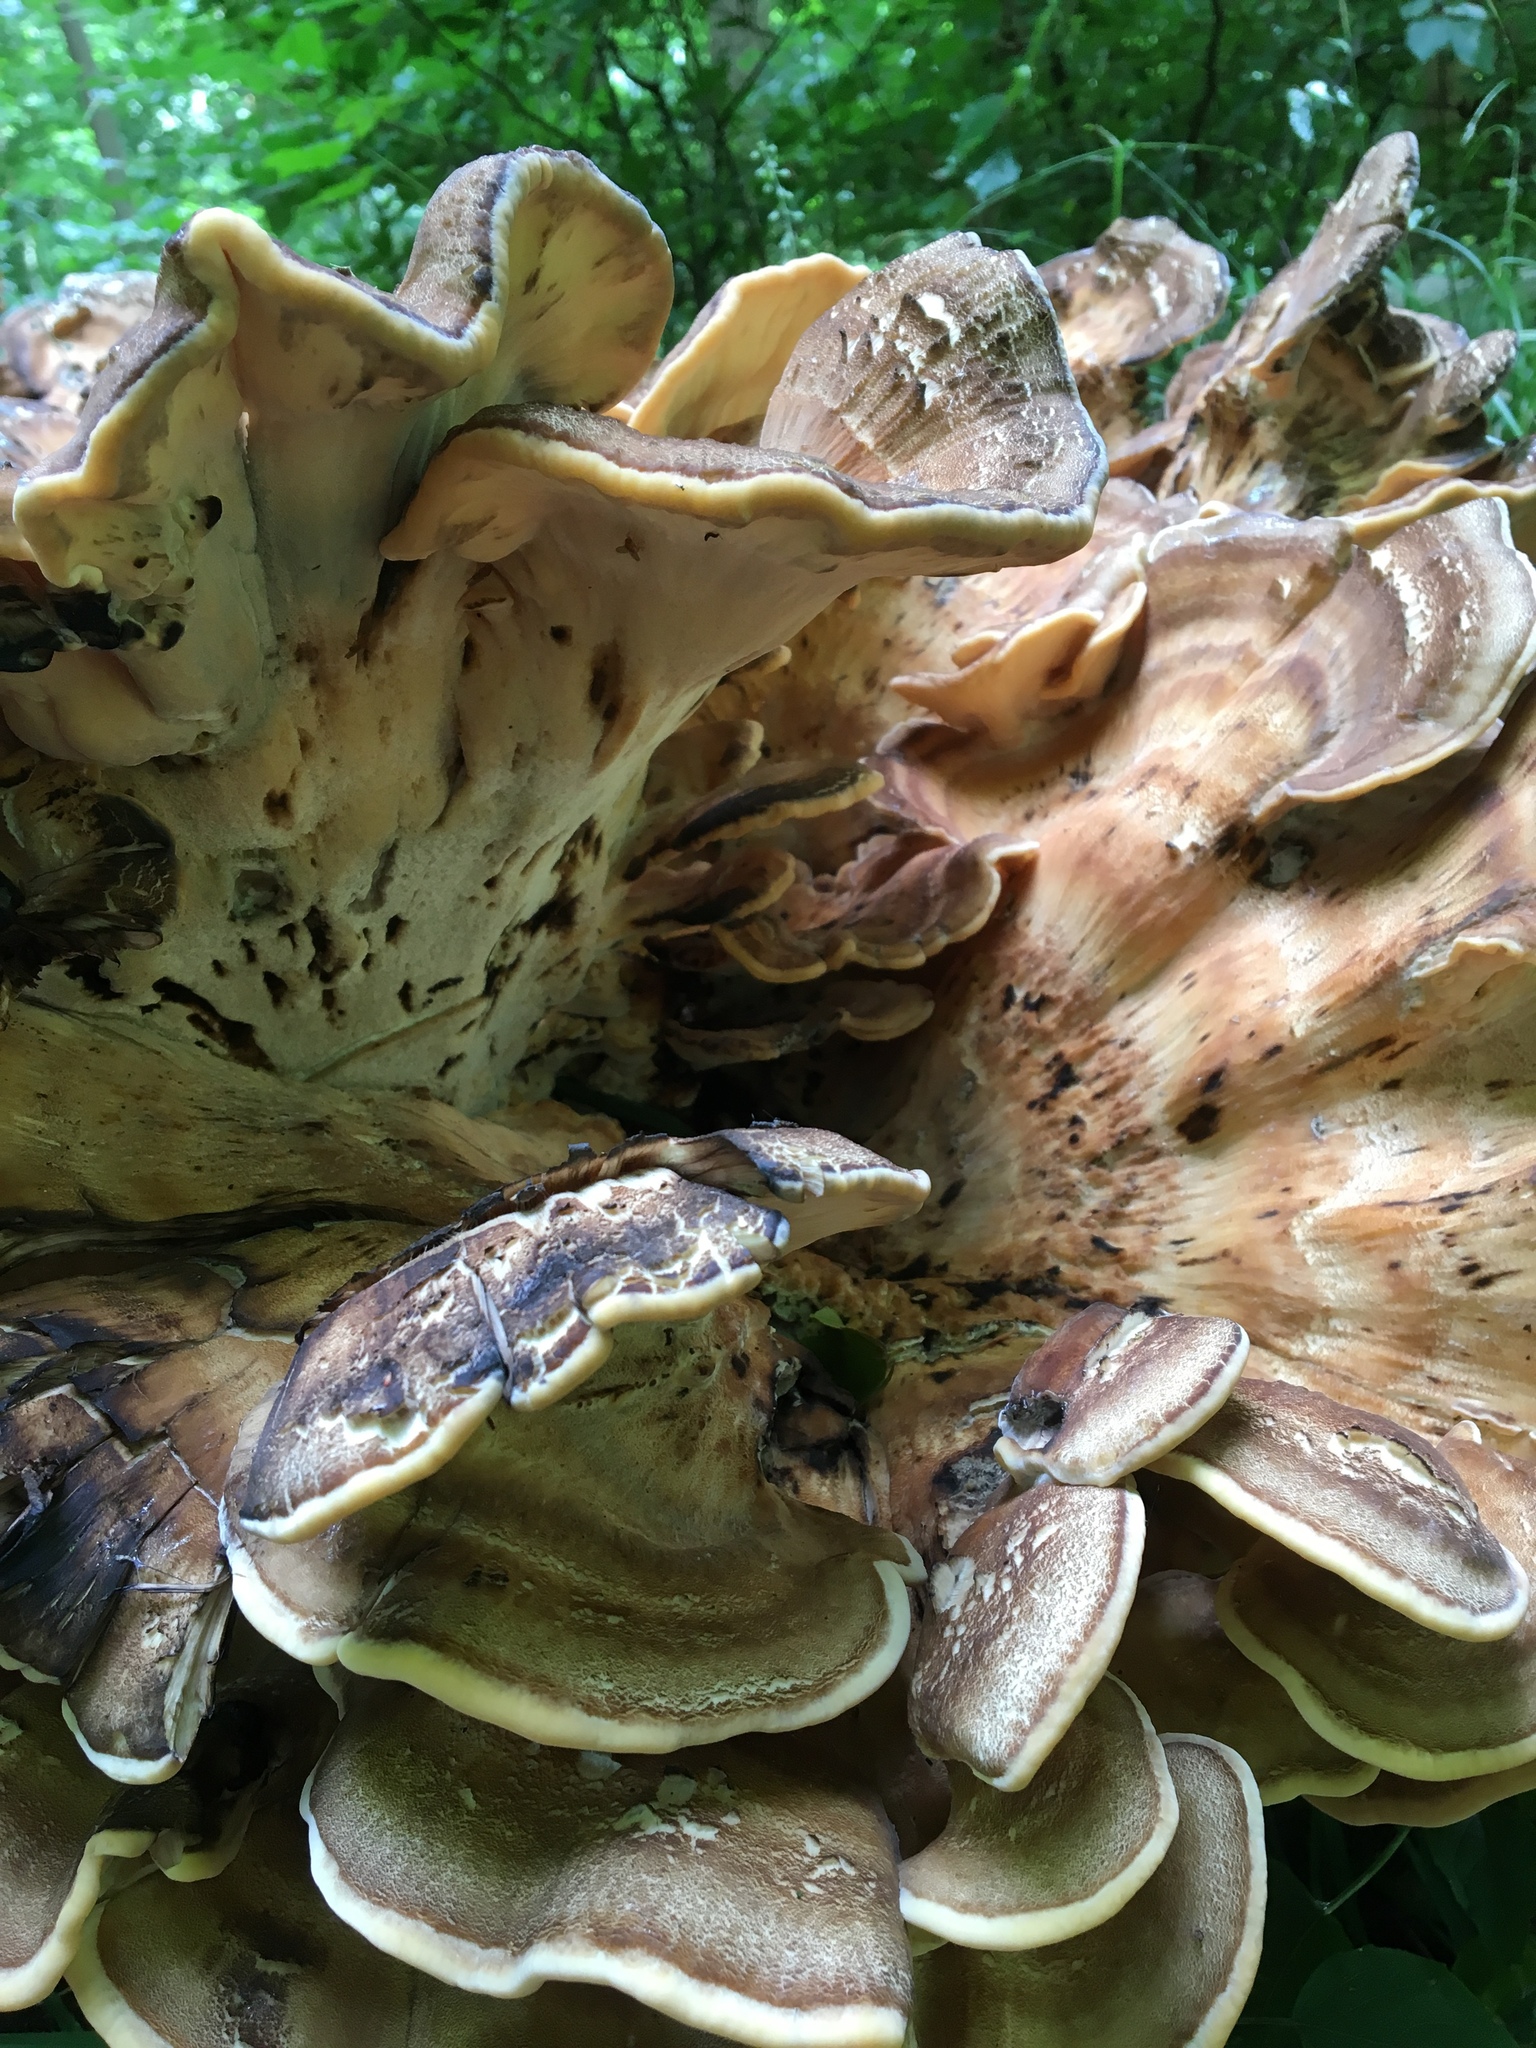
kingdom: Fungi
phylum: Basidiomycota
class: Agaricomycetes
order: Polyporales
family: Meripilaceae
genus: Meripilus
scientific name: Meripilus giganteus
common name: Giant polypore
